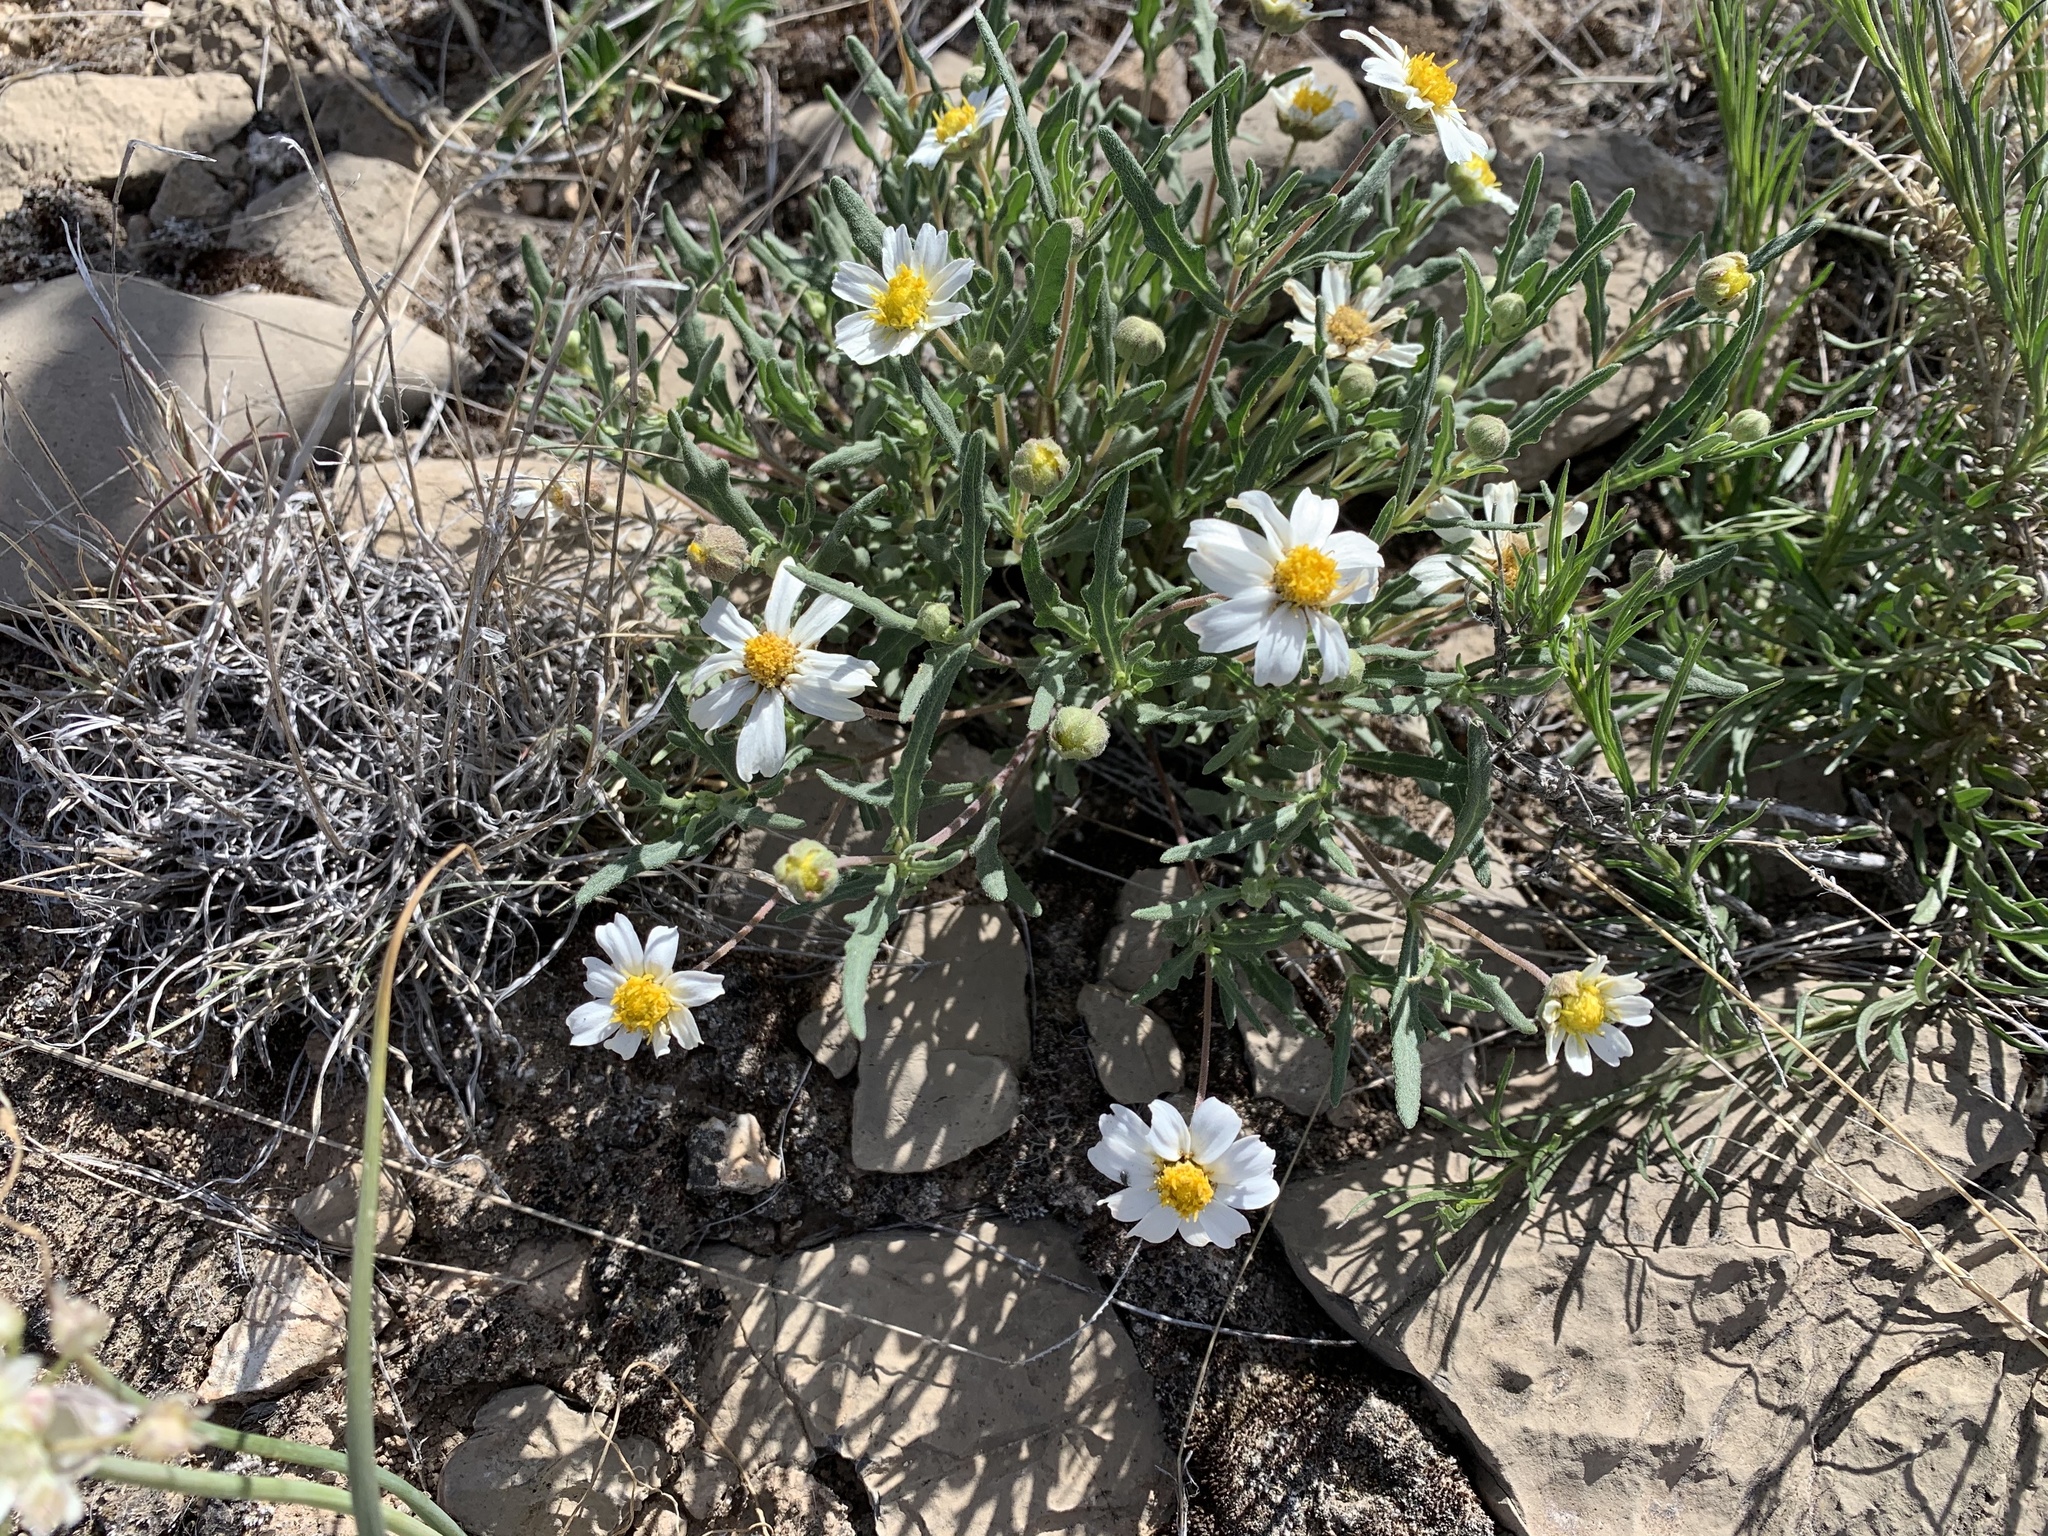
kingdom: Plantae
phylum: Tracheophyta
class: Magnoliopsida
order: Asterales
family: Asteraceae
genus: Melampodium
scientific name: Melampodium leucanthum
